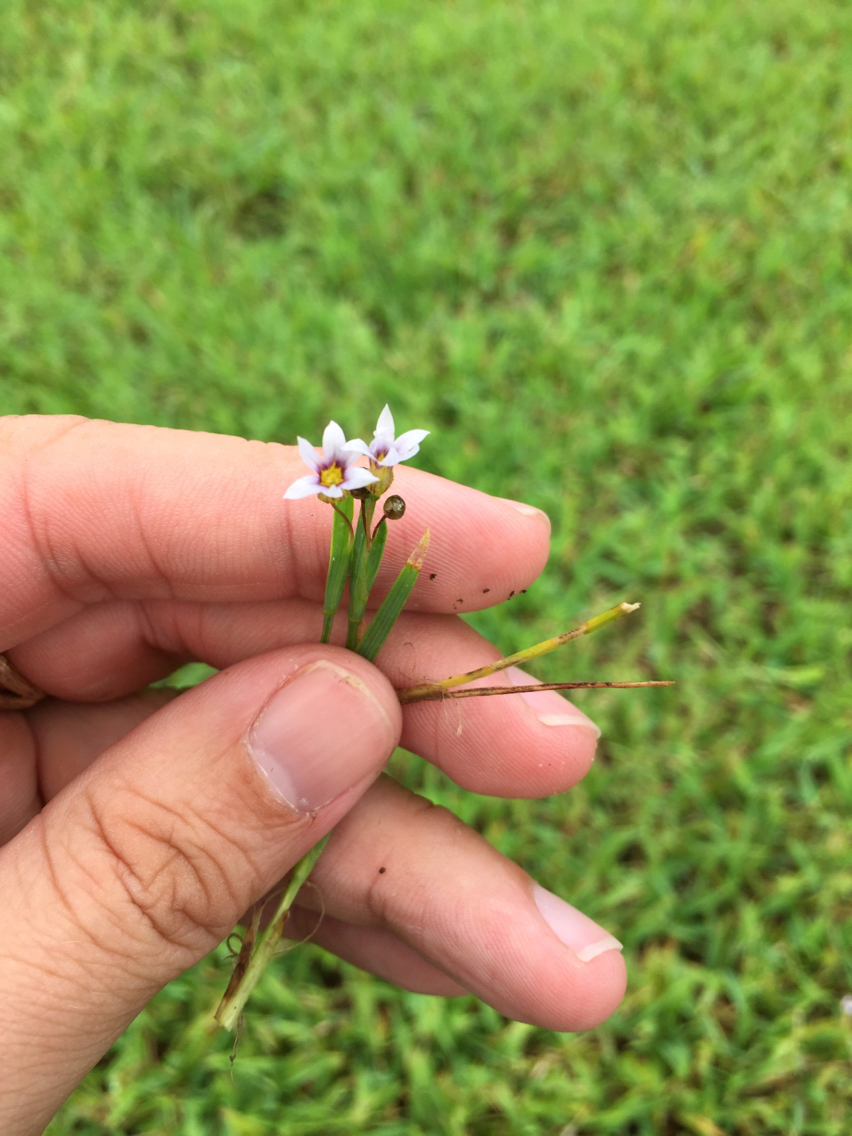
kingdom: Plantae
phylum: Tracheophyta
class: Liliopsida
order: Asparagales
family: Iridaceae
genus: Sisyrinchium
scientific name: Sisyrinchium micranthum
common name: Bermuda pigroot
